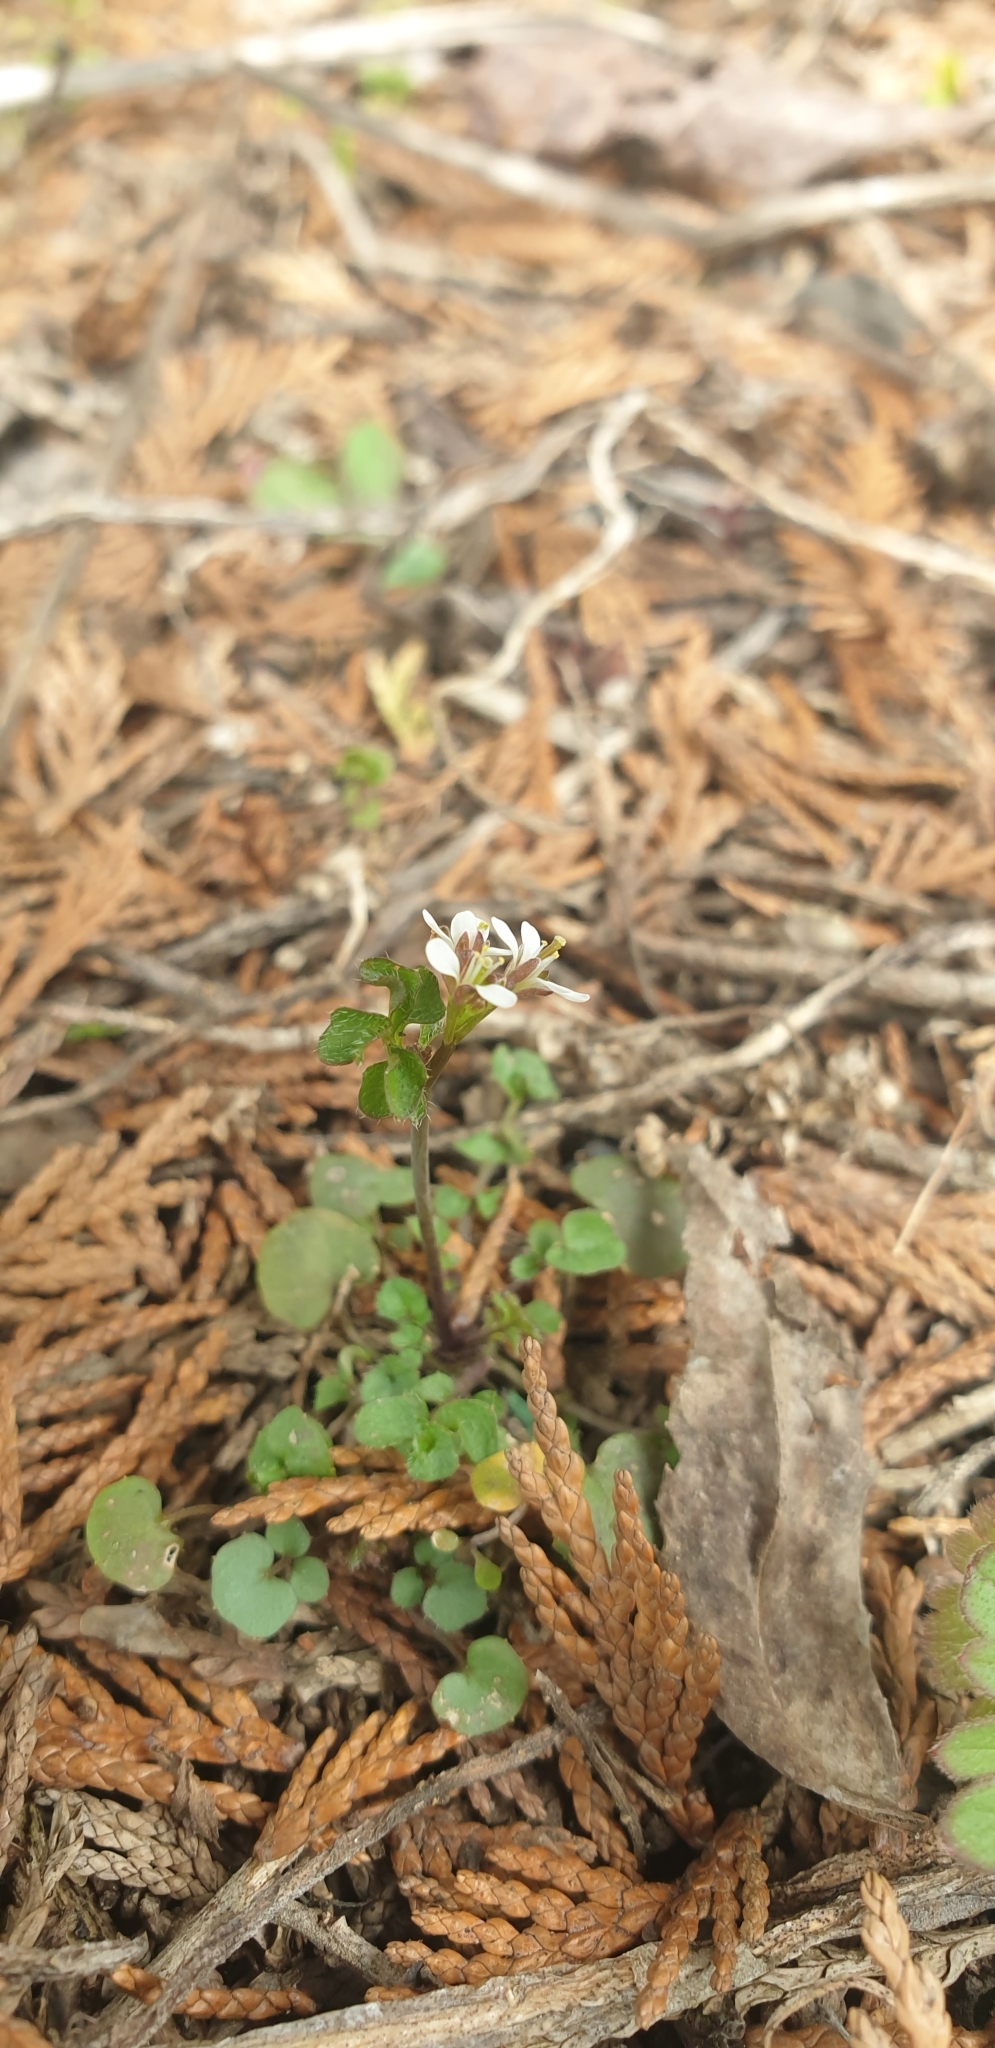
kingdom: Plantae
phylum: Tracheophyta
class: Magnoliopsida
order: Brassicales
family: Brassicaceae
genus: Cardamine
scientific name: Cardamine hirsuta
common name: Hairy bittercress
